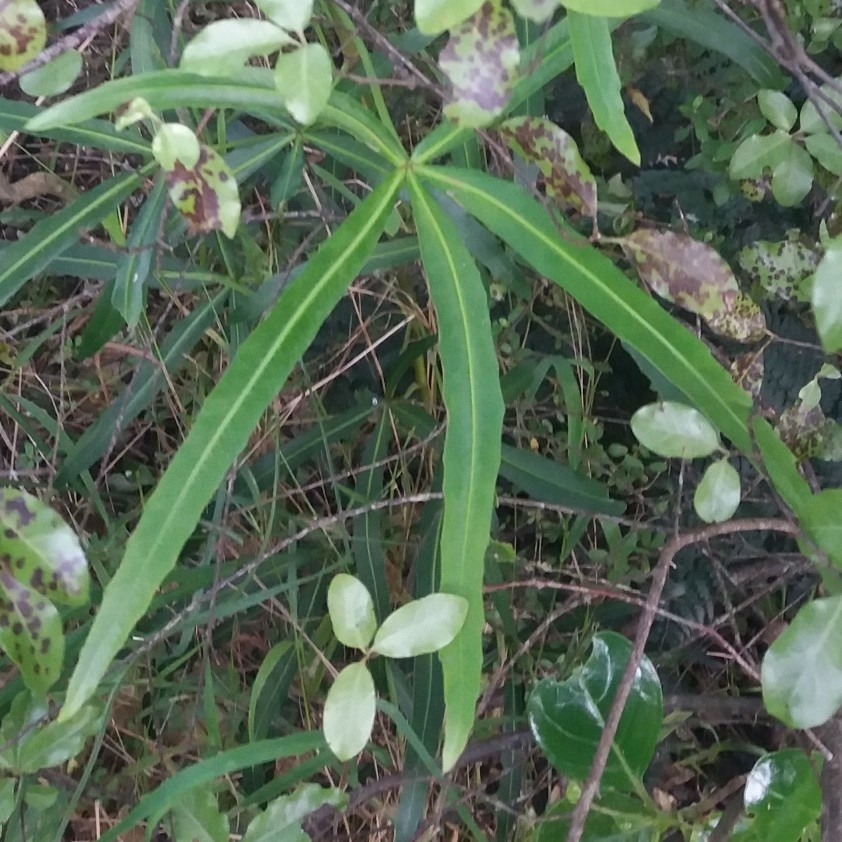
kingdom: Plantae
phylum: Tracheophyta
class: Magnoliopsida
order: Apiales
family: Araliaceae
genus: Pseudopanax
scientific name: Pseudopanax
